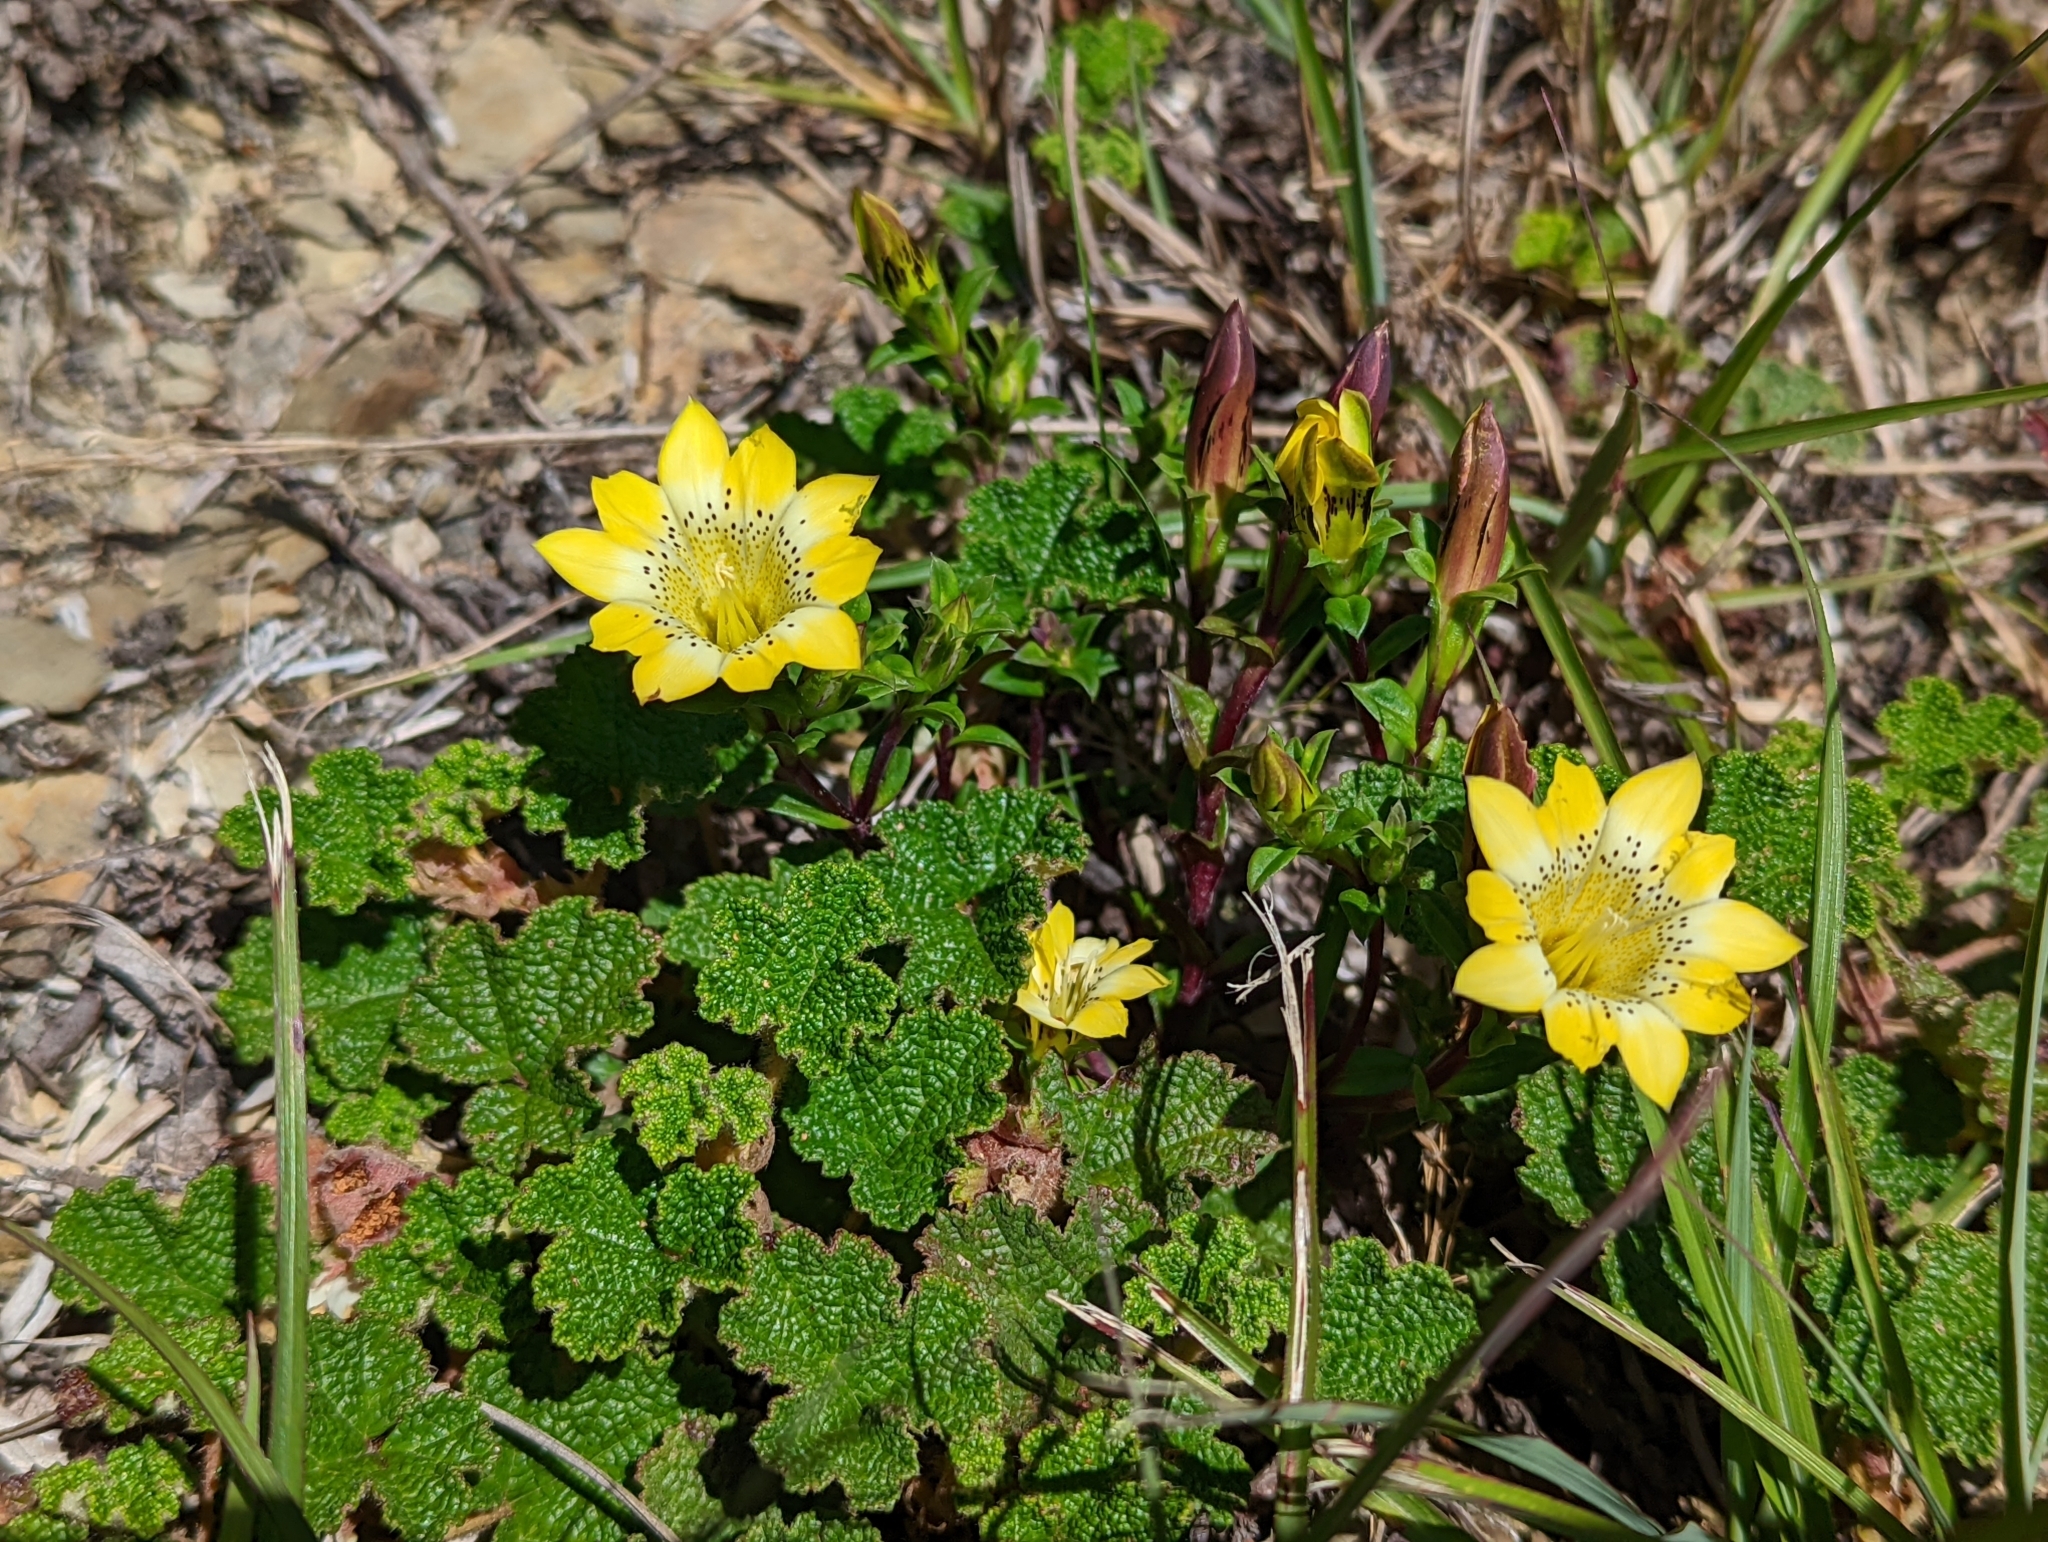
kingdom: Plantae
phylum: Tracheophyta
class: Magnoliopsida
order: Gentianales
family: Gentianaceae
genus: Gentiana
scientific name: Gentiana scabrida
